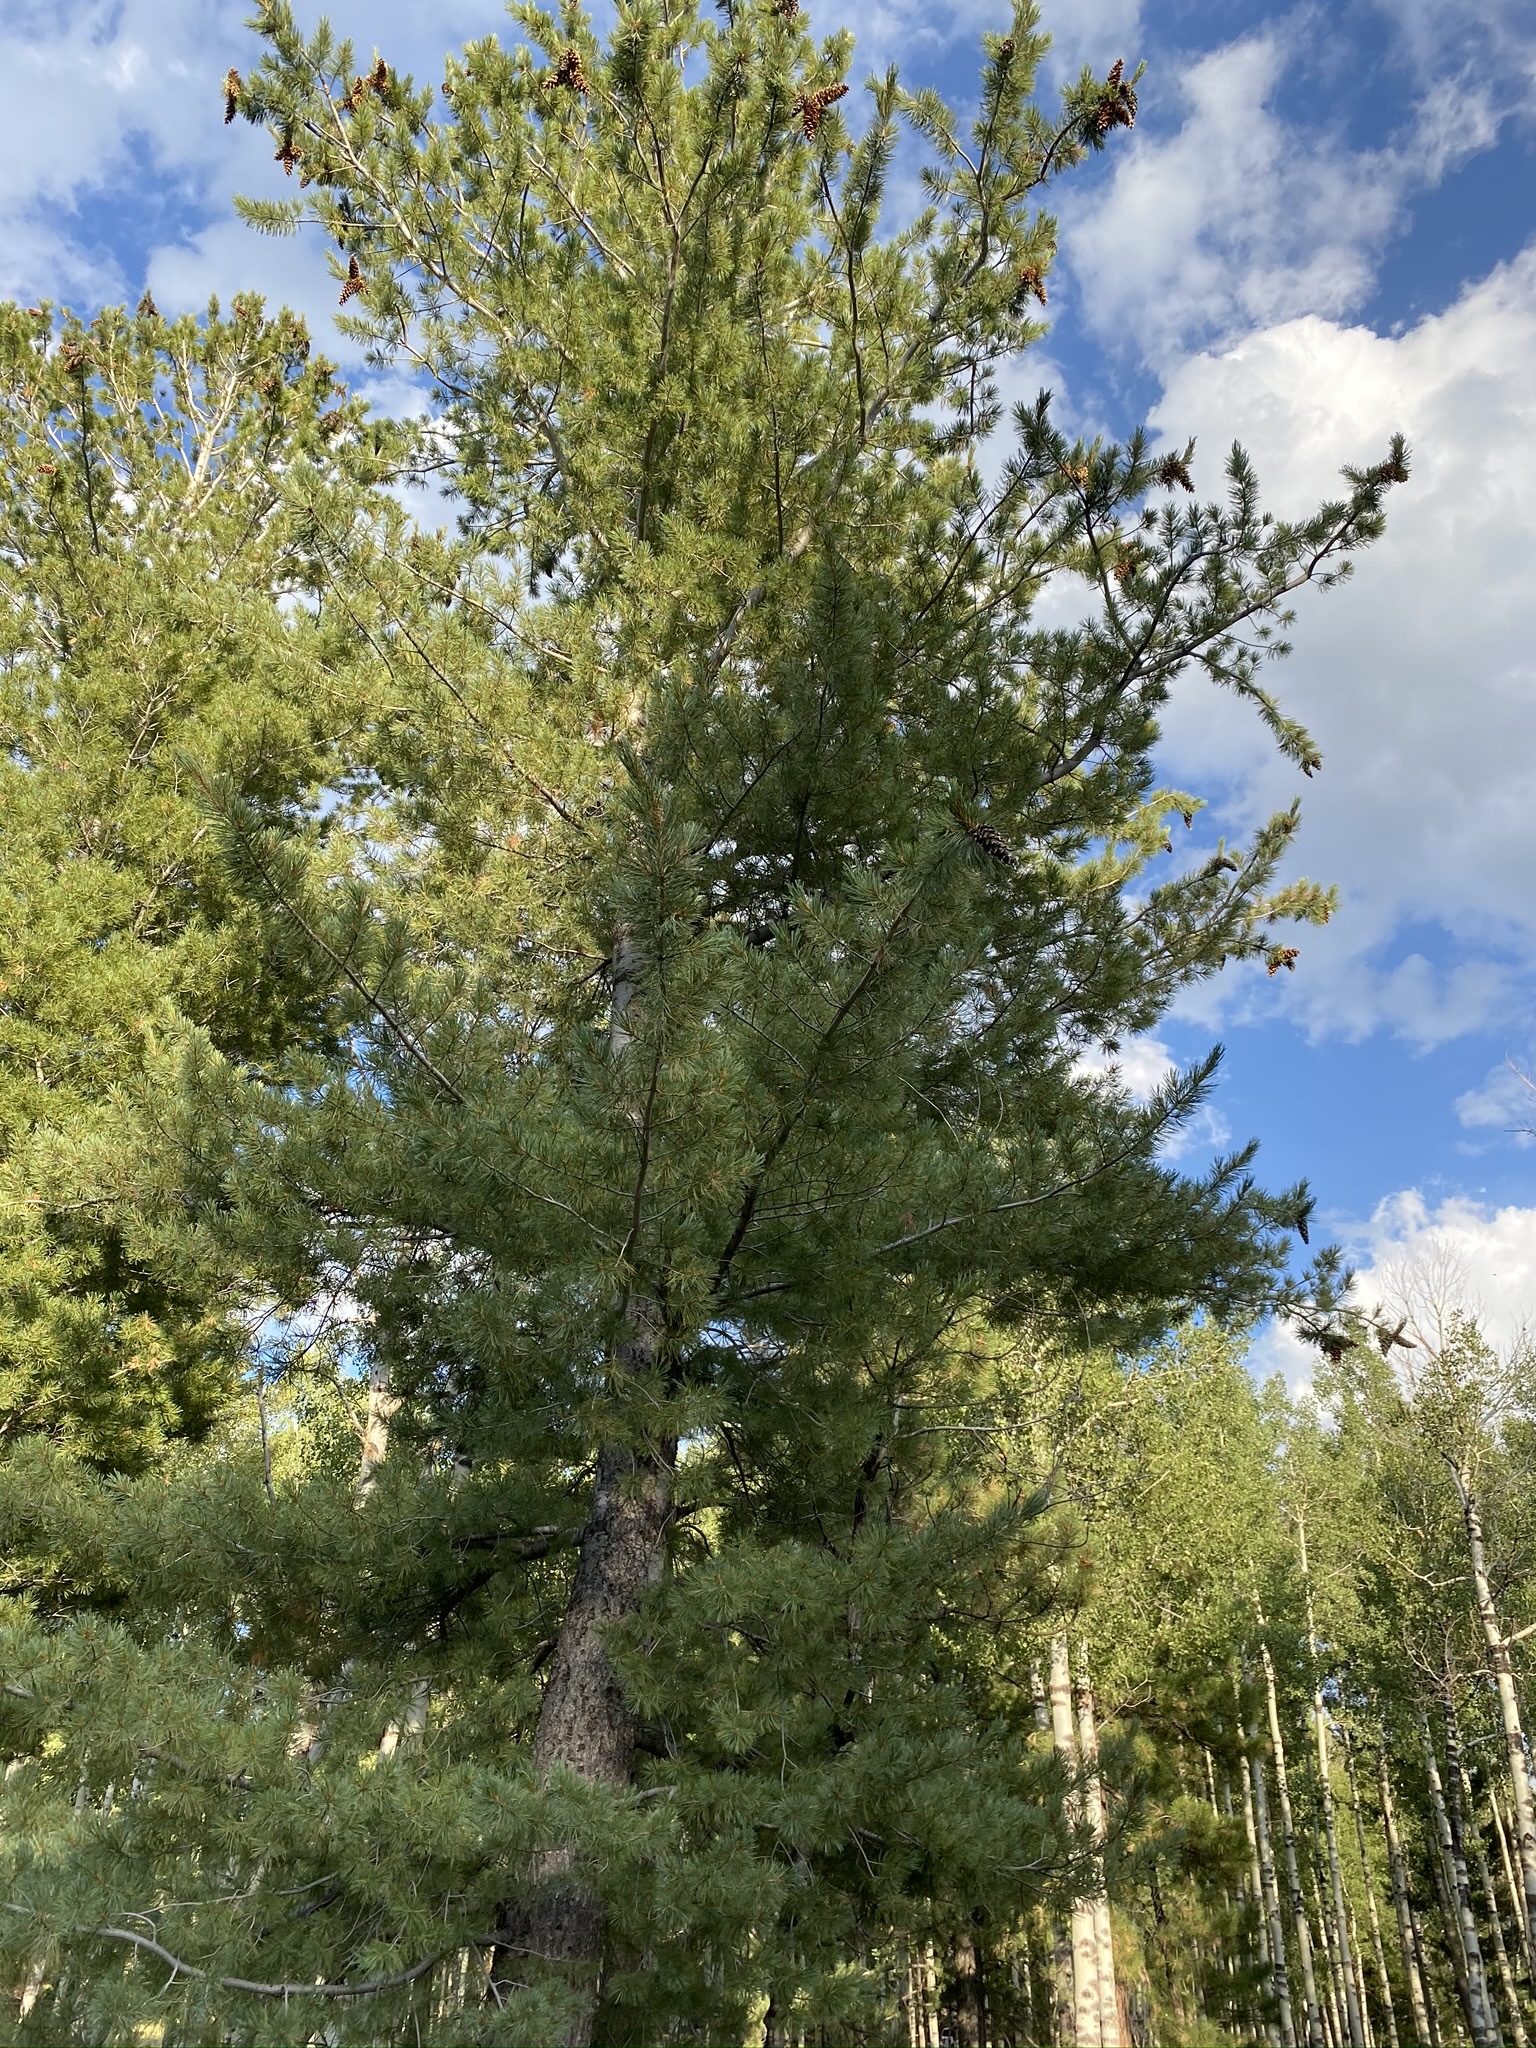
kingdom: Plantae
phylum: Tracheophyta
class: Pinopsida
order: Pinales
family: Pinaceae
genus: Pinus
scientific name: Pinus strobiformis
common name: Southwestern white pine
